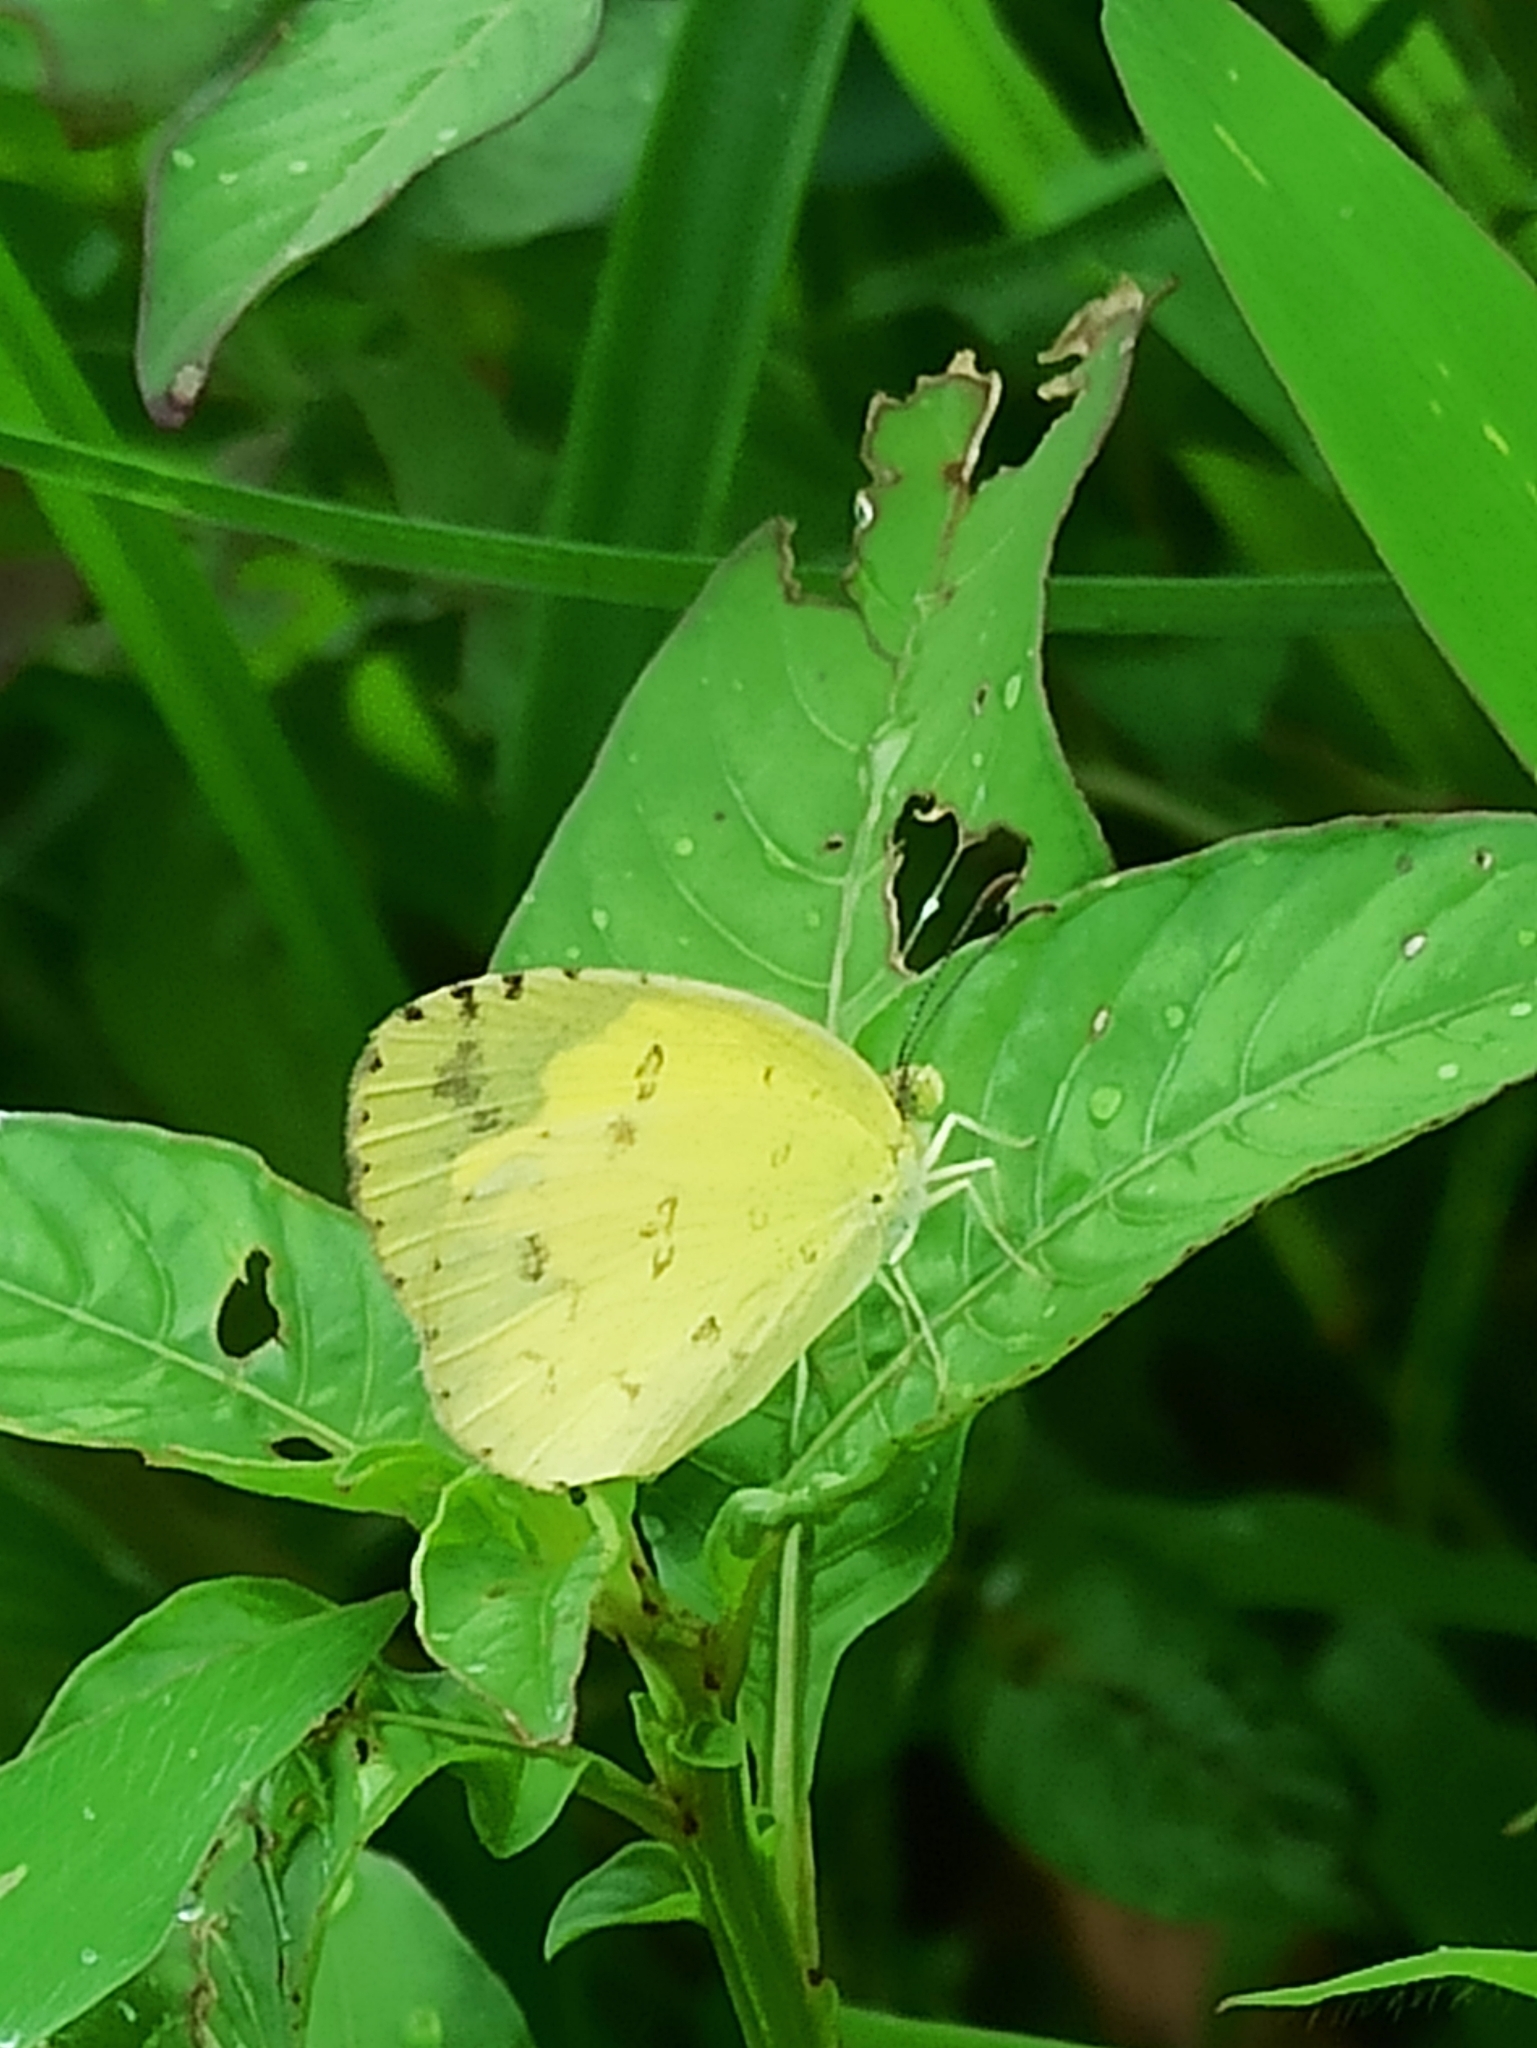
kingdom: Animalia
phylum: Arthropoda
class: Insecta
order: Lepidoptera
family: Pieridae
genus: Eurema
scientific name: Eurema hecabe
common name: Pale grass yellow
